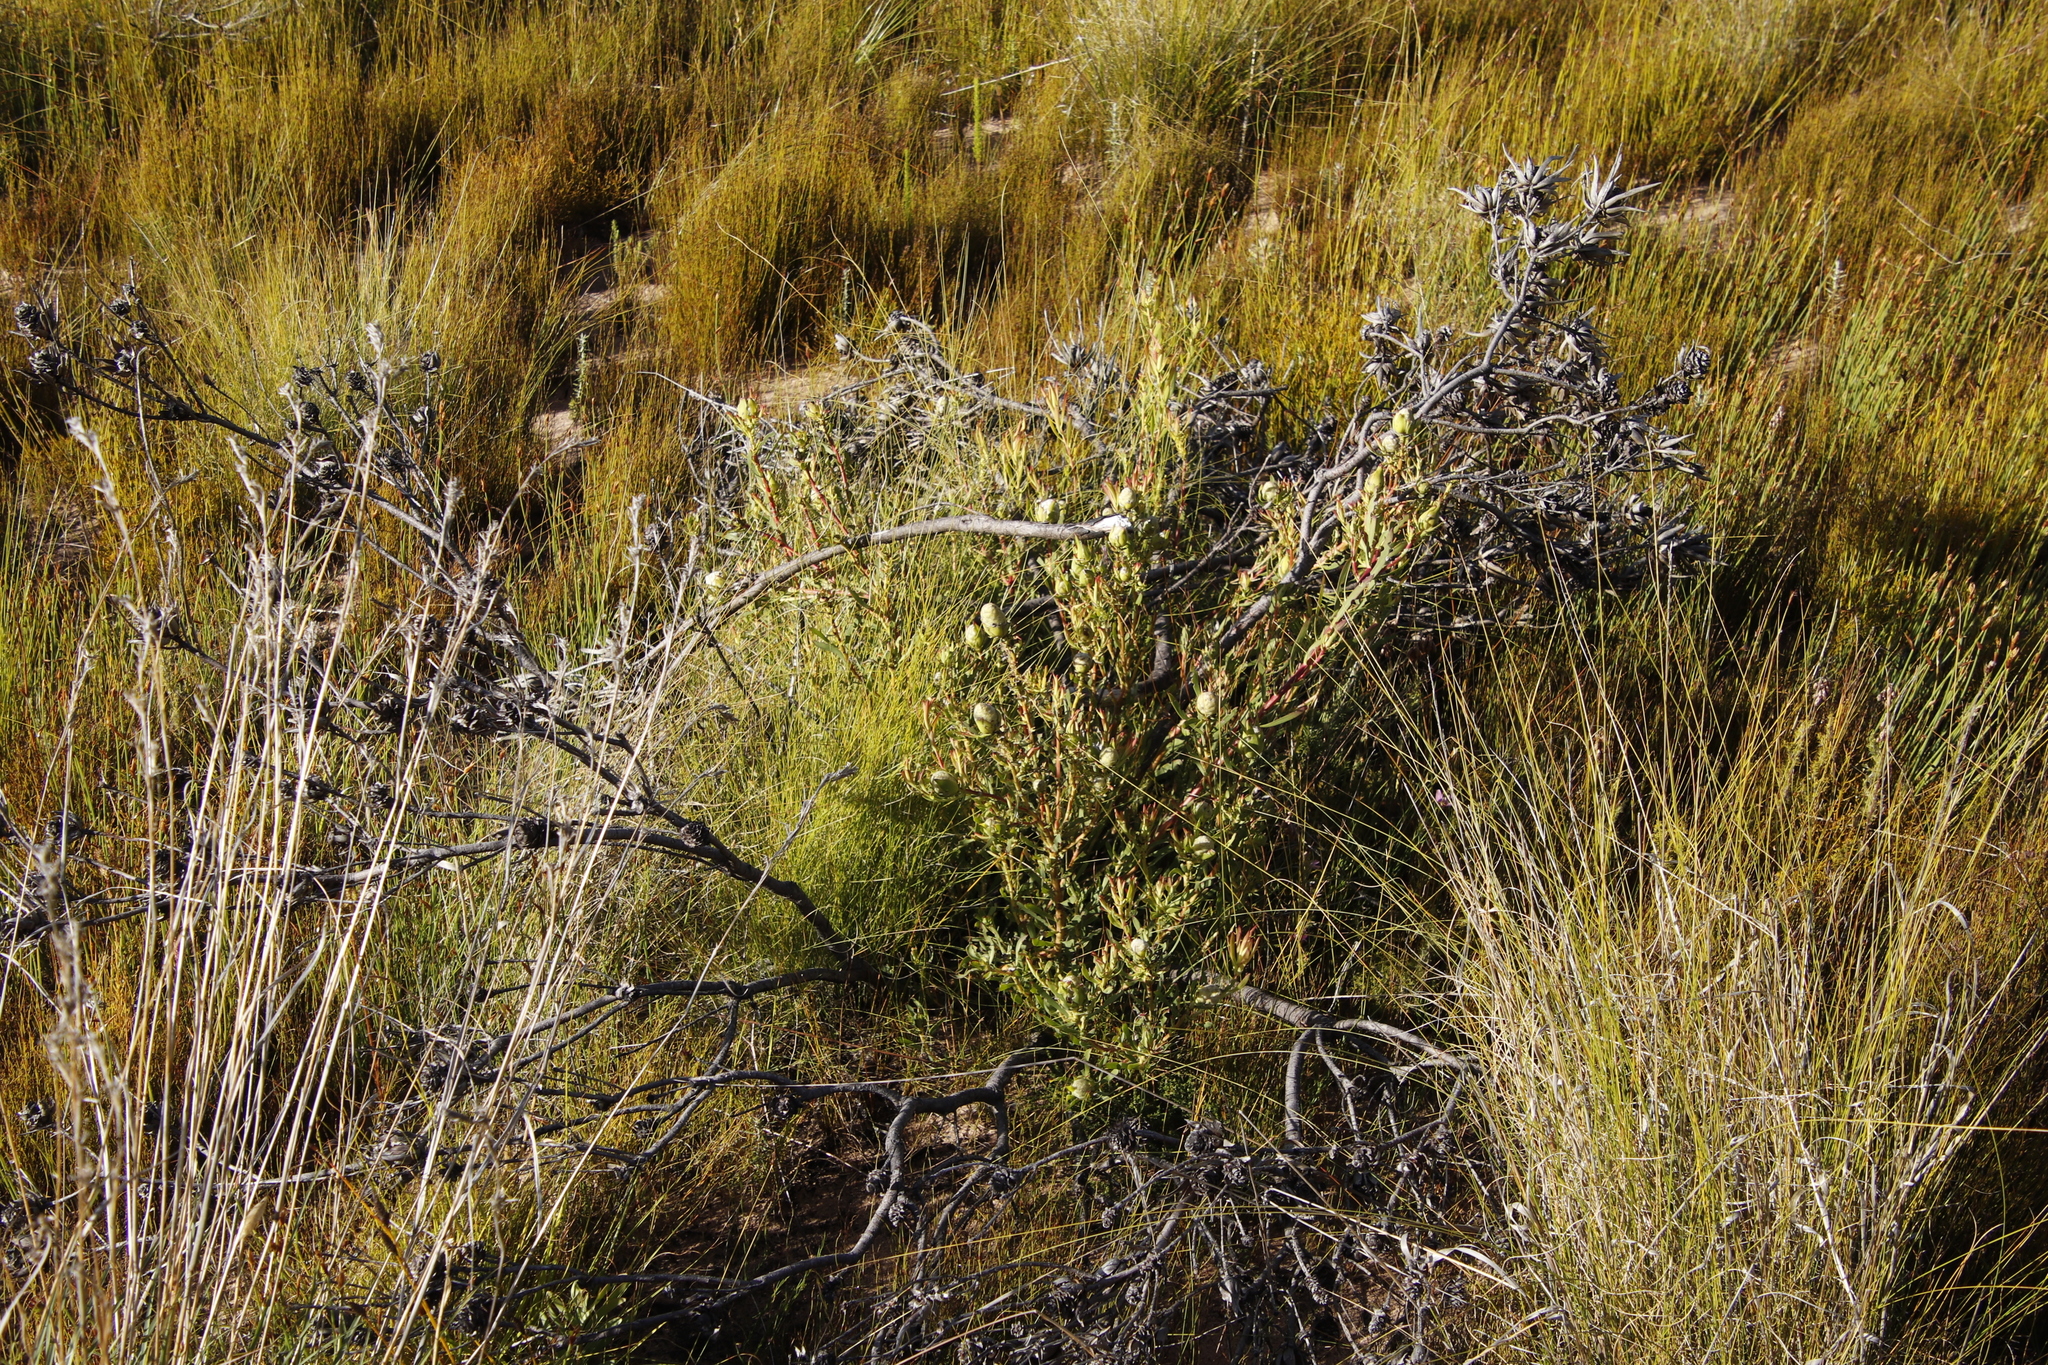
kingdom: Plantae
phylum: Tracheophyta
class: Magnoliopsida
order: Proteales
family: Proteaceae
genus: Leucadendron
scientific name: Leucadendron salignum
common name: Common sunshine conebush
